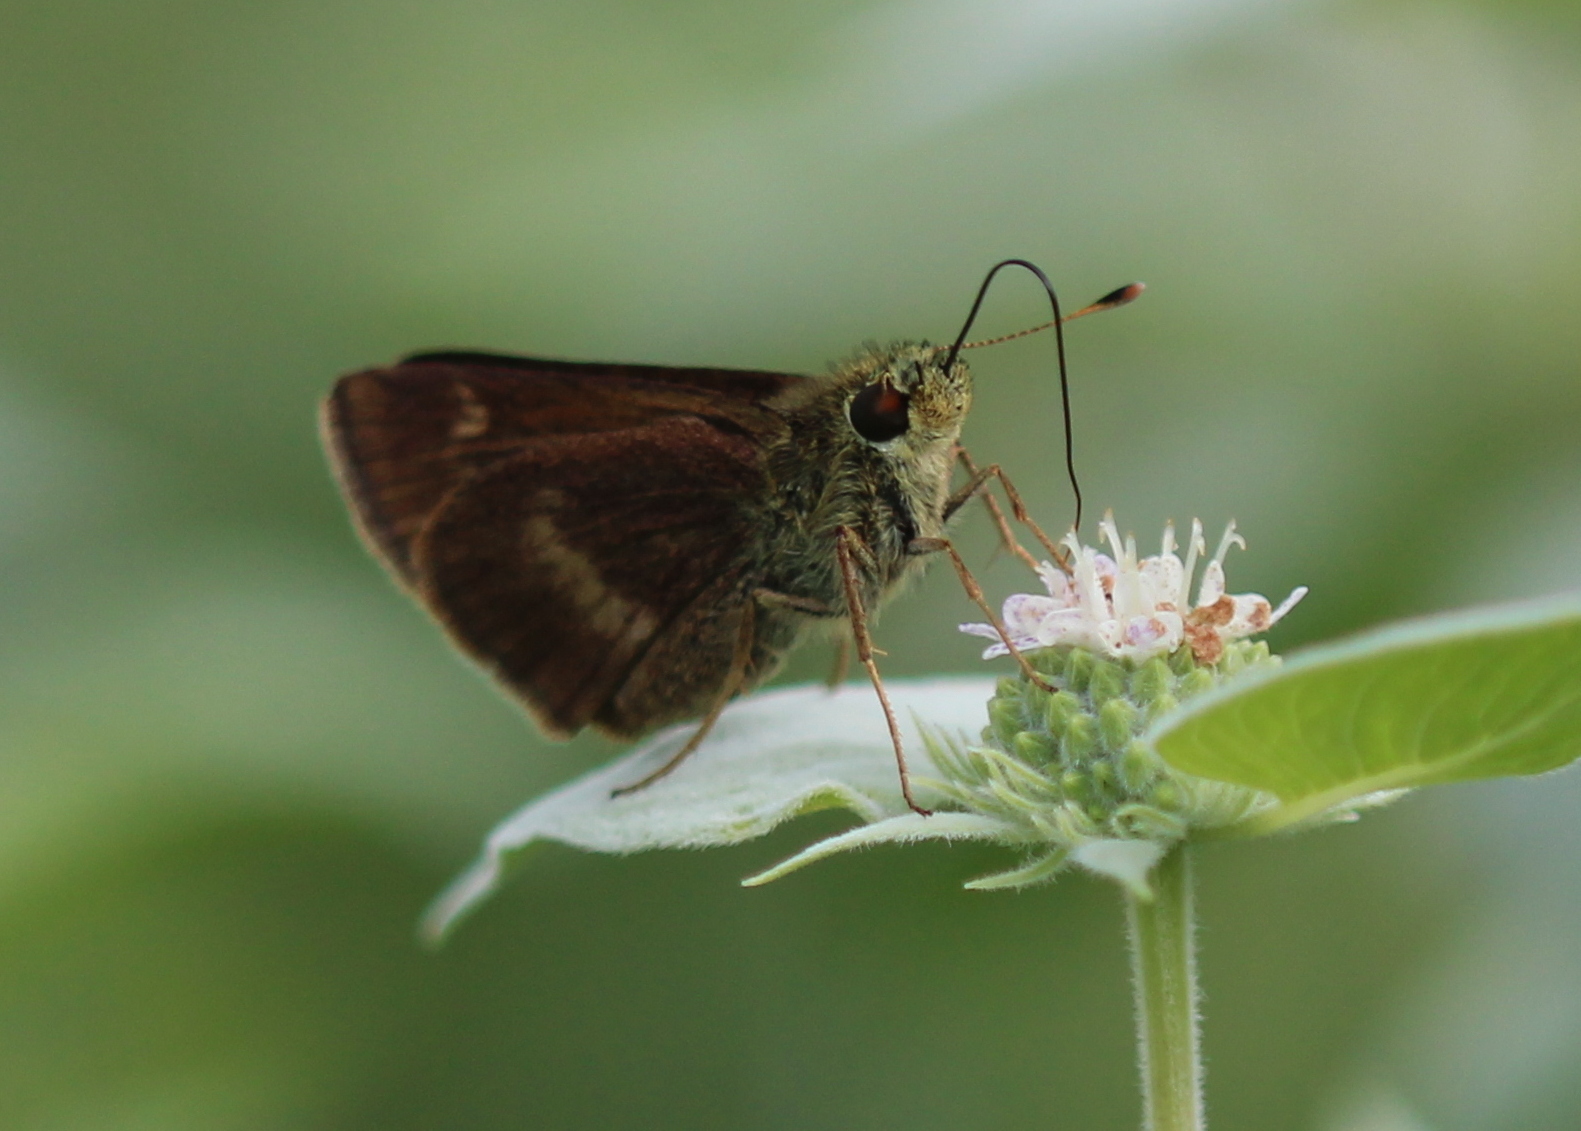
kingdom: Animalia
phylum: Arthropoda
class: Insecta
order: Lepidoptera
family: Hesperiidae
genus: Polites
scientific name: Polites egeremet
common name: Northern broken-dash
